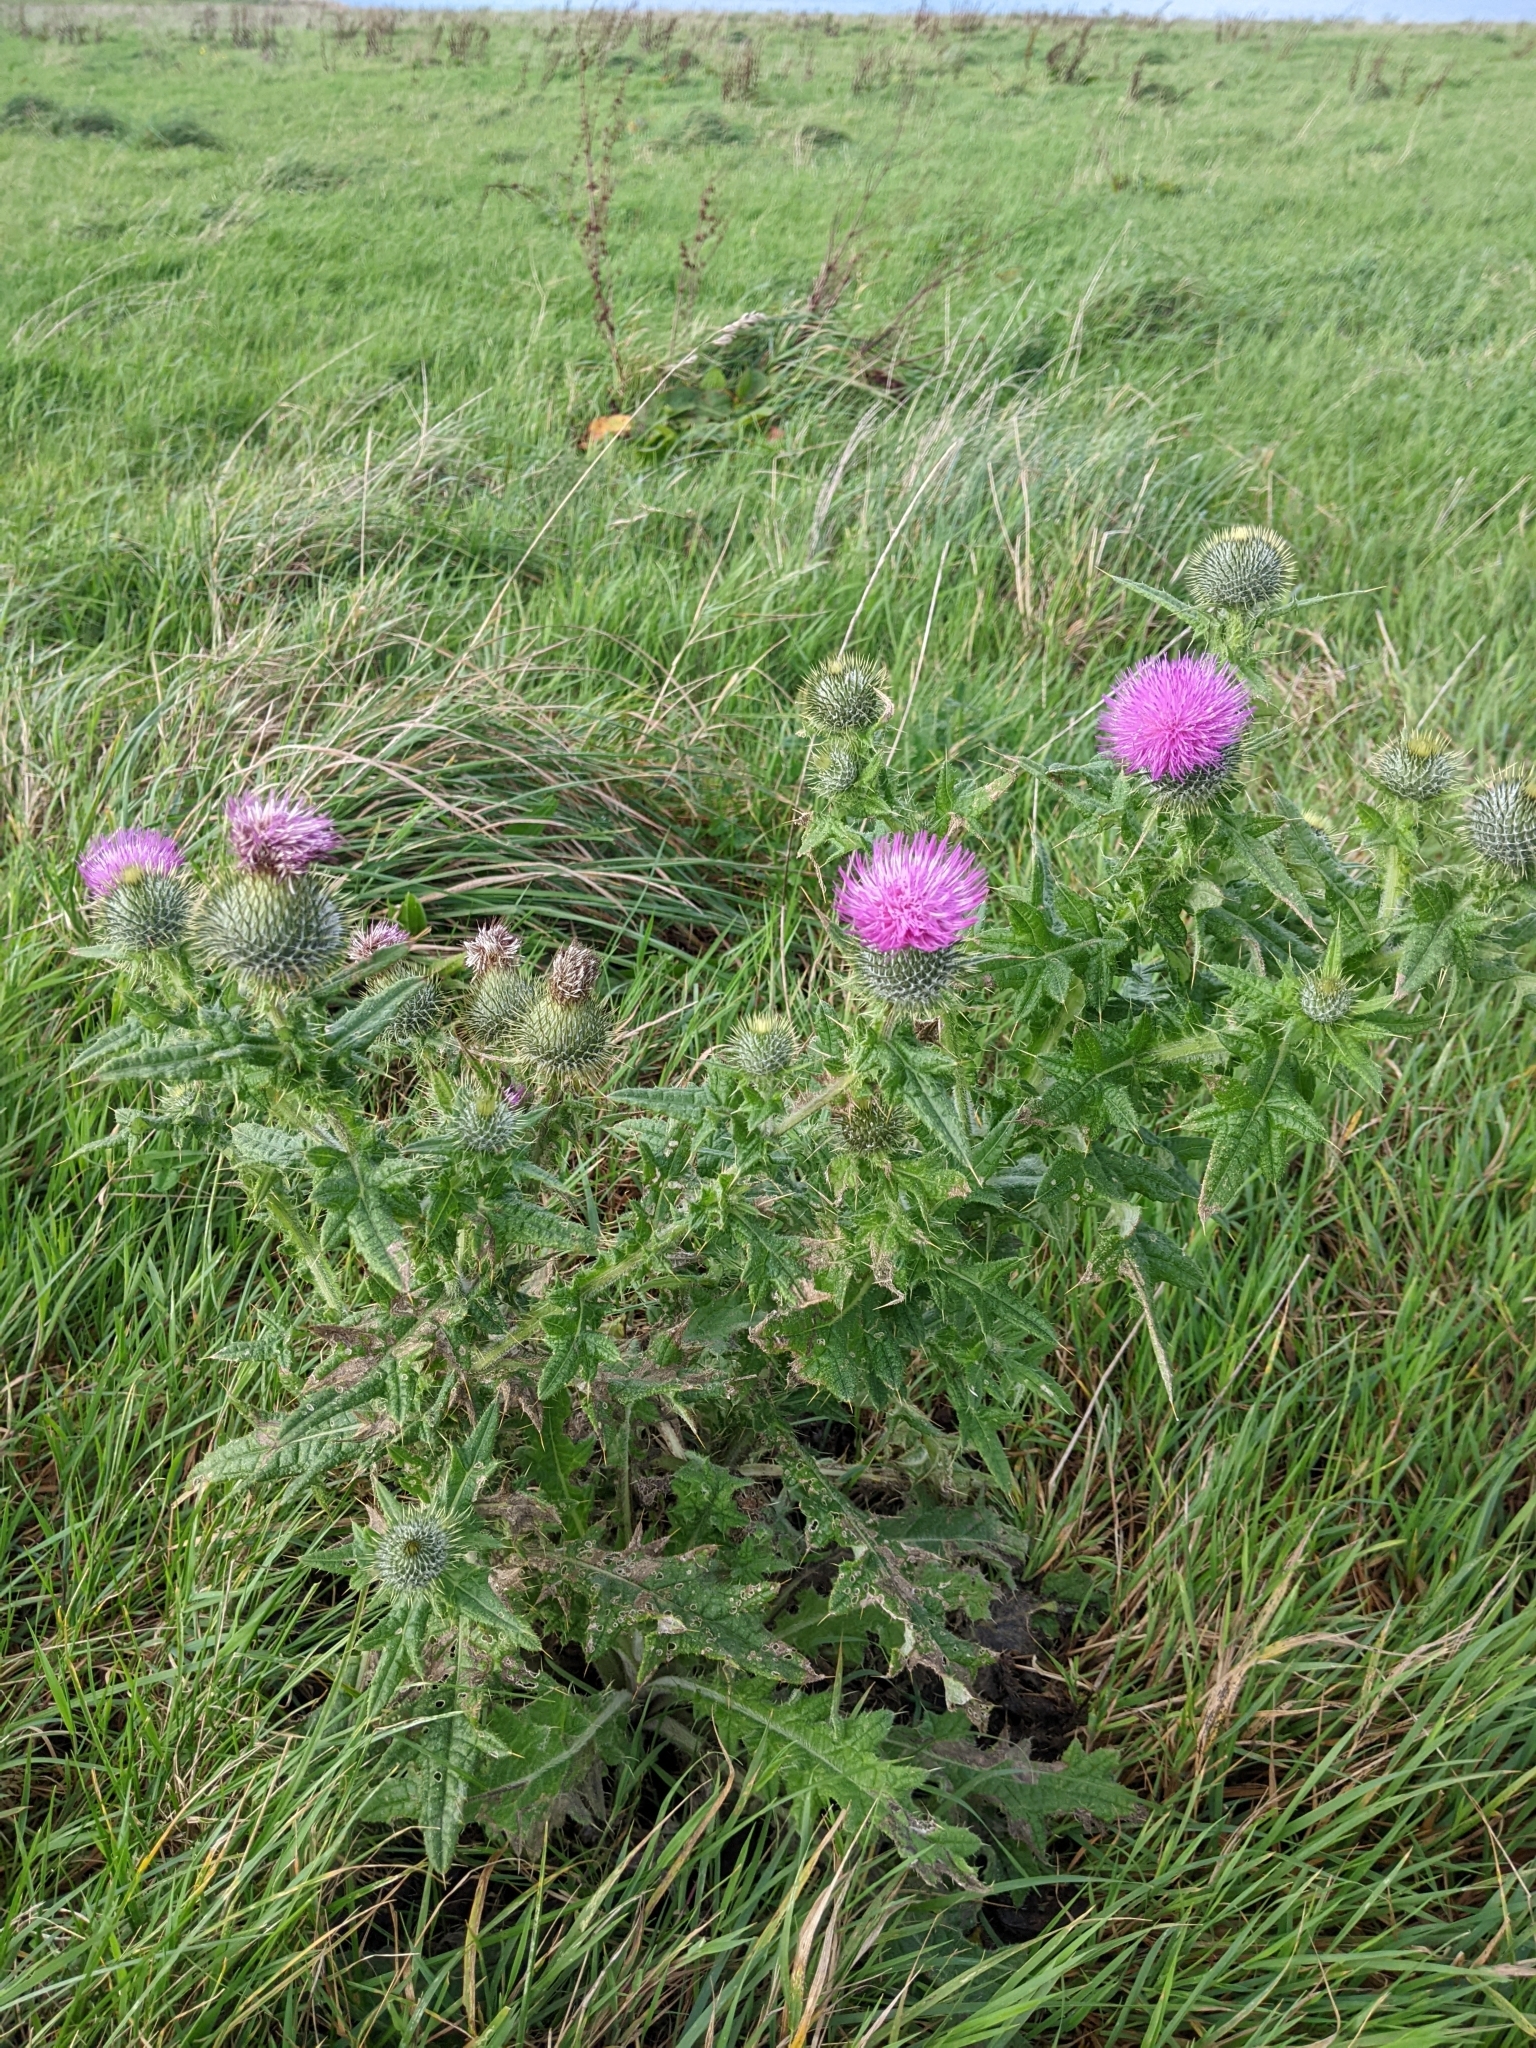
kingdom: Plantae
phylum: Tracheophyta
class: Magnoliopsida
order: Asterales
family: Asteraceae
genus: Cirsium
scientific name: Cirsium vulgare
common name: Bull thistle
